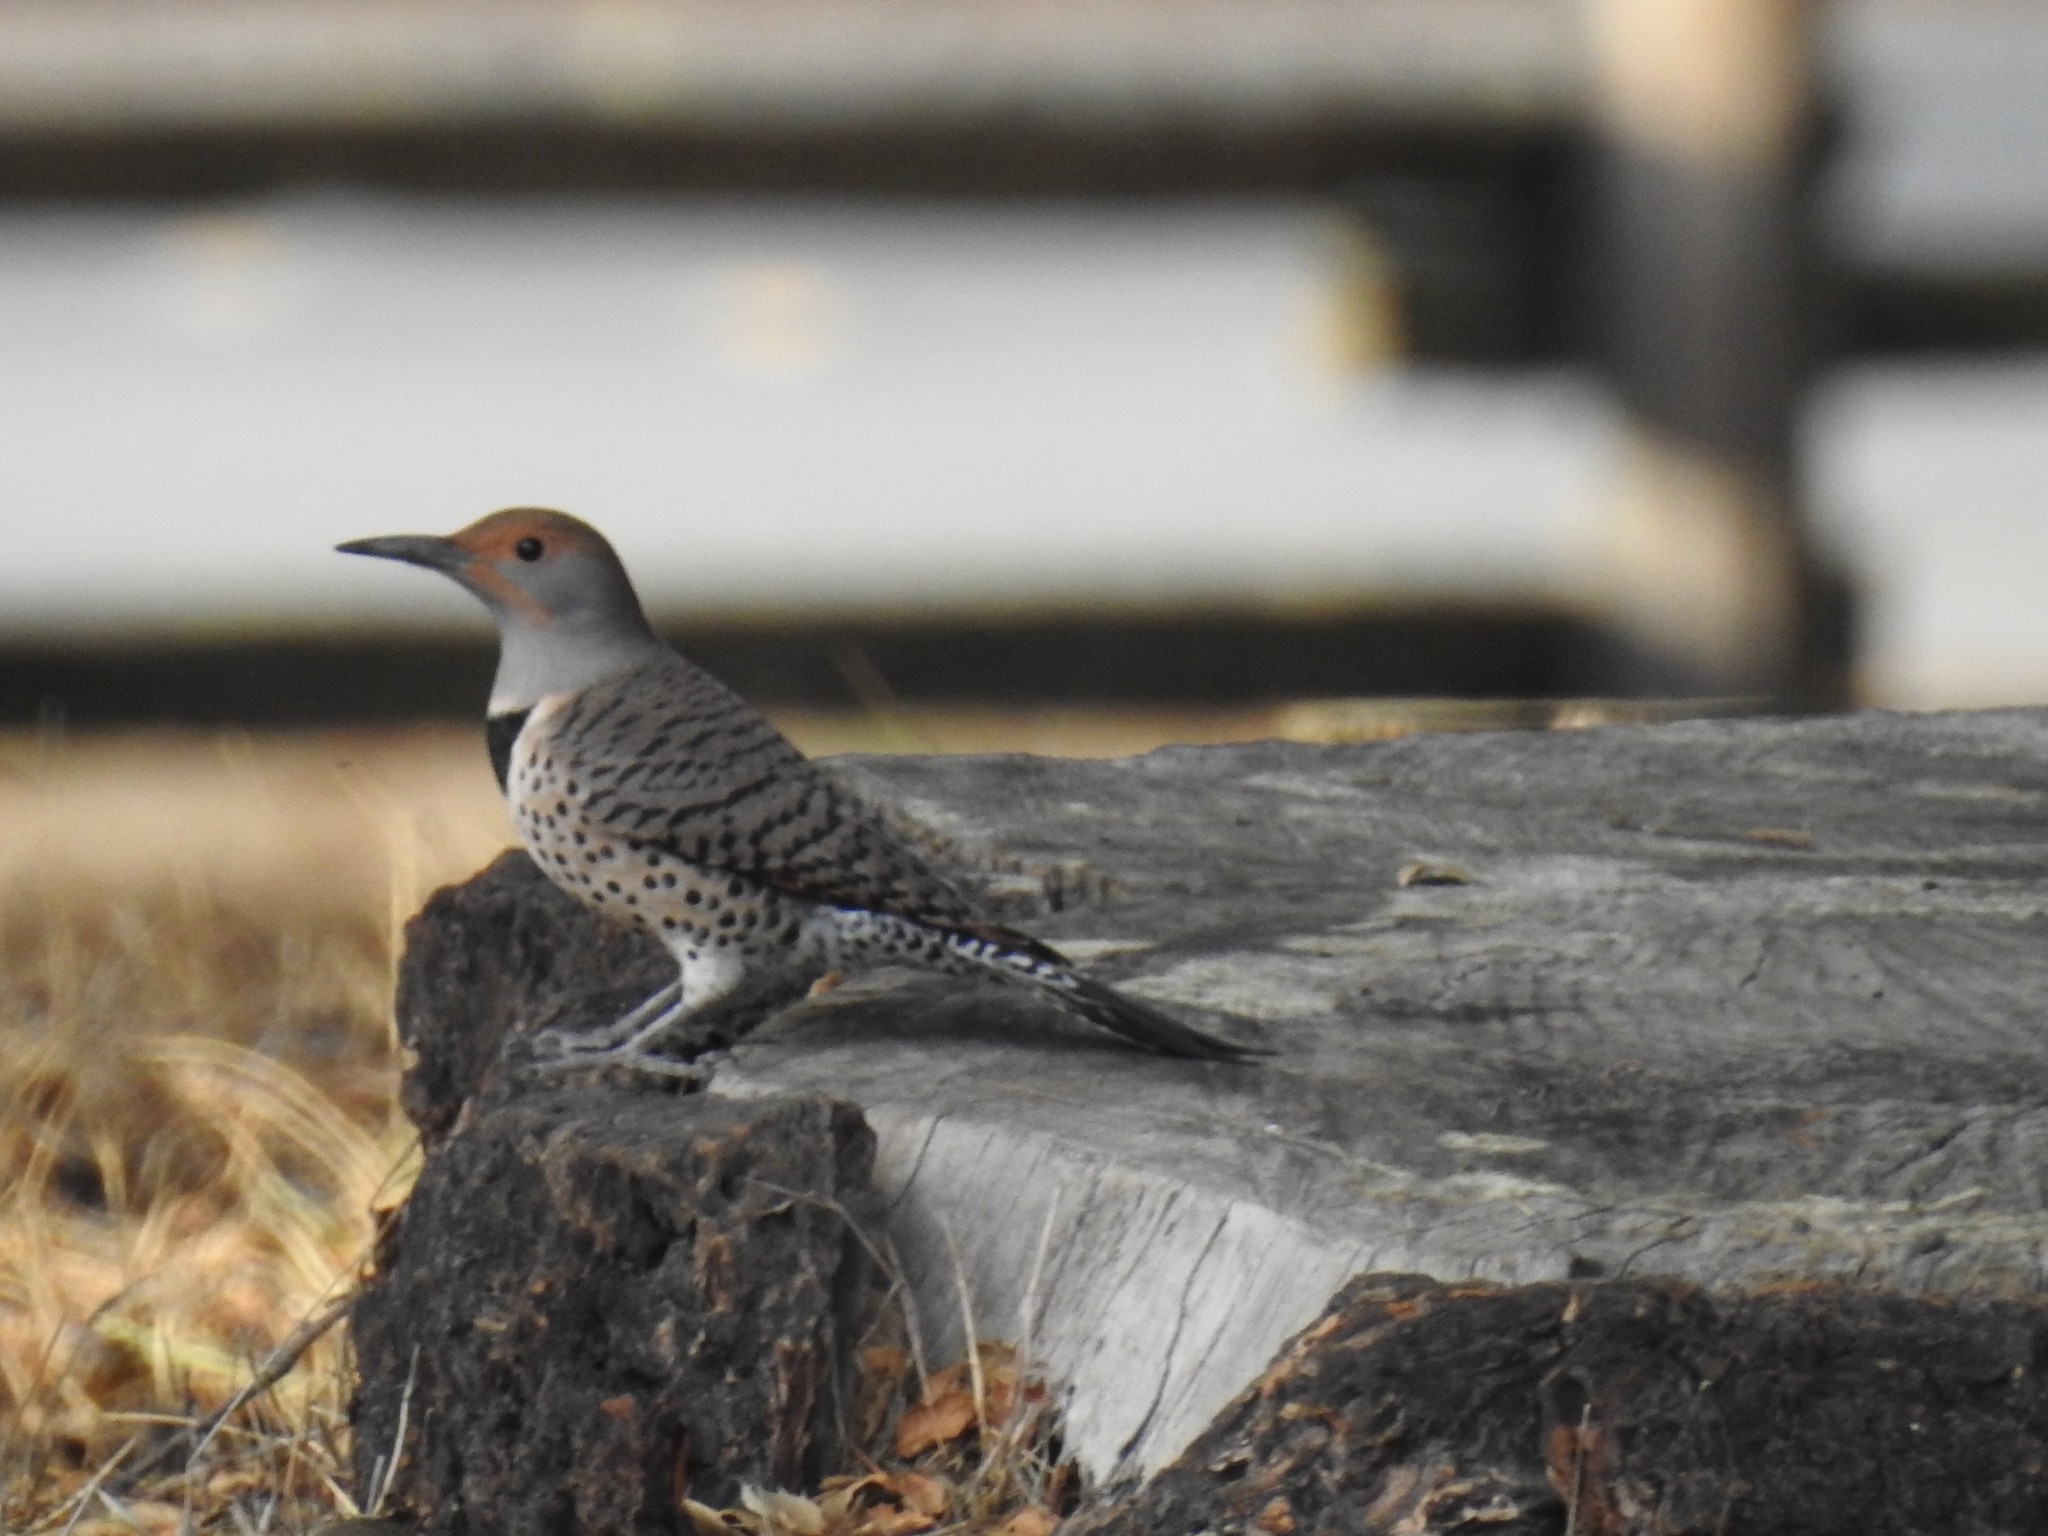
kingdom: Animalia
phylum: Chordata
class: Aves
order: Piciformes
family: Picidae
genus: Colaptes
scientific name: Colaptes auratus
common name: Northern flicker
